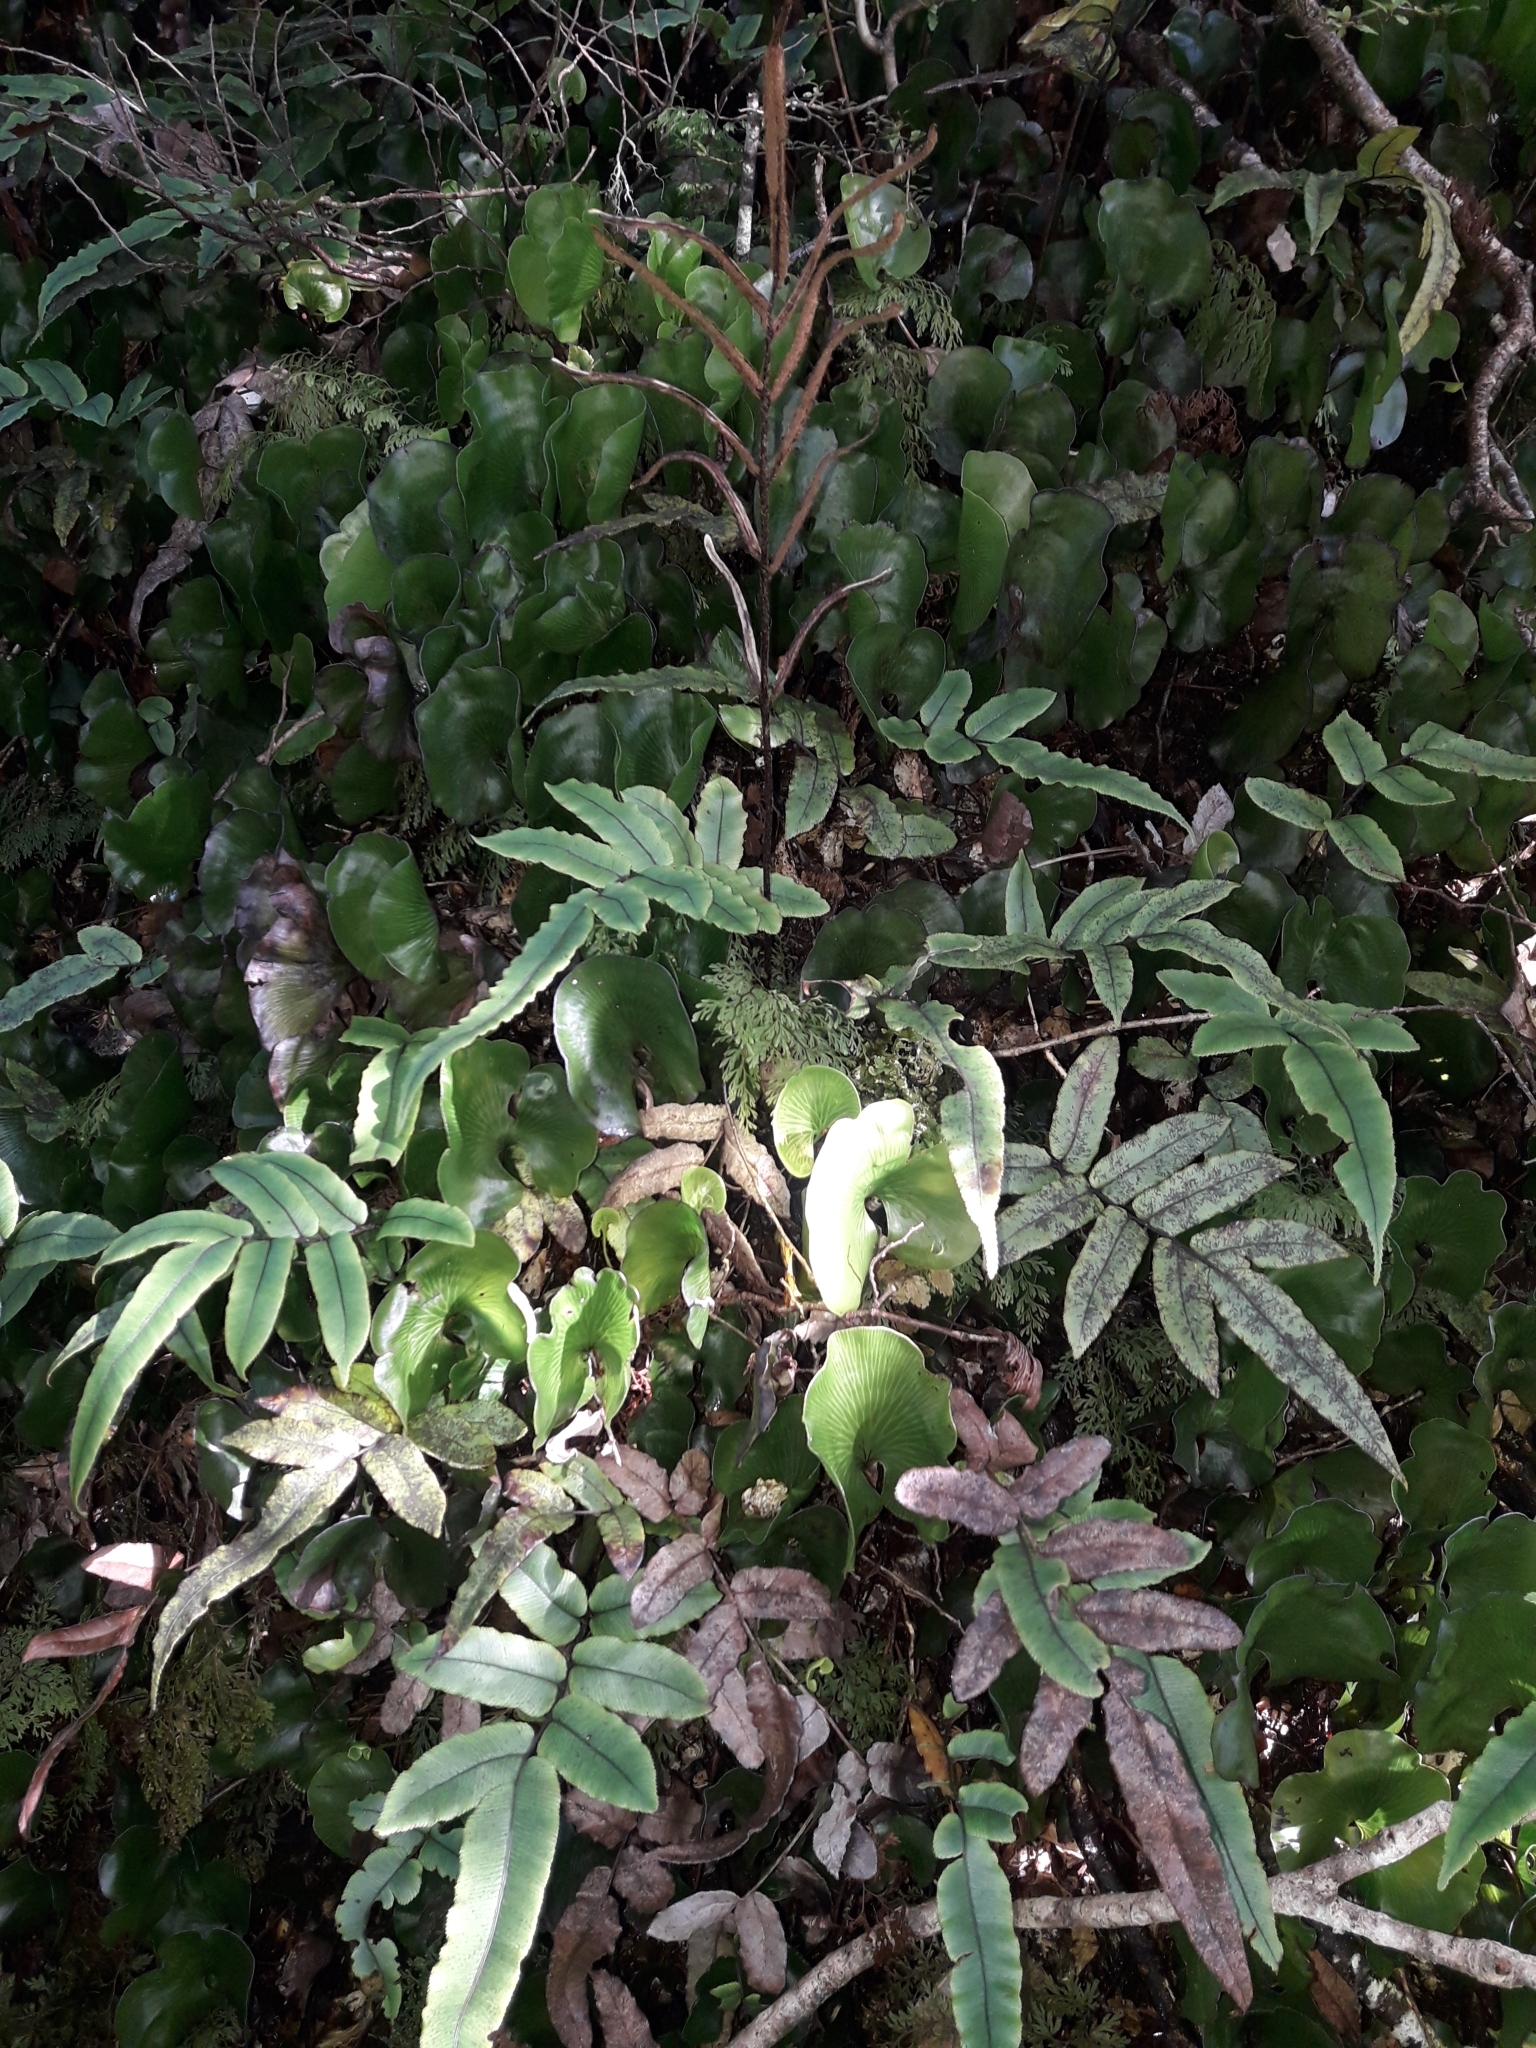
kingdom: Plantae
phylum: Tracheophyta
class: Polypodiopsida
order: Polypodiales
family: Blechnaceae
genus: Parablechnum
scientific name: Parablechnum procerum
